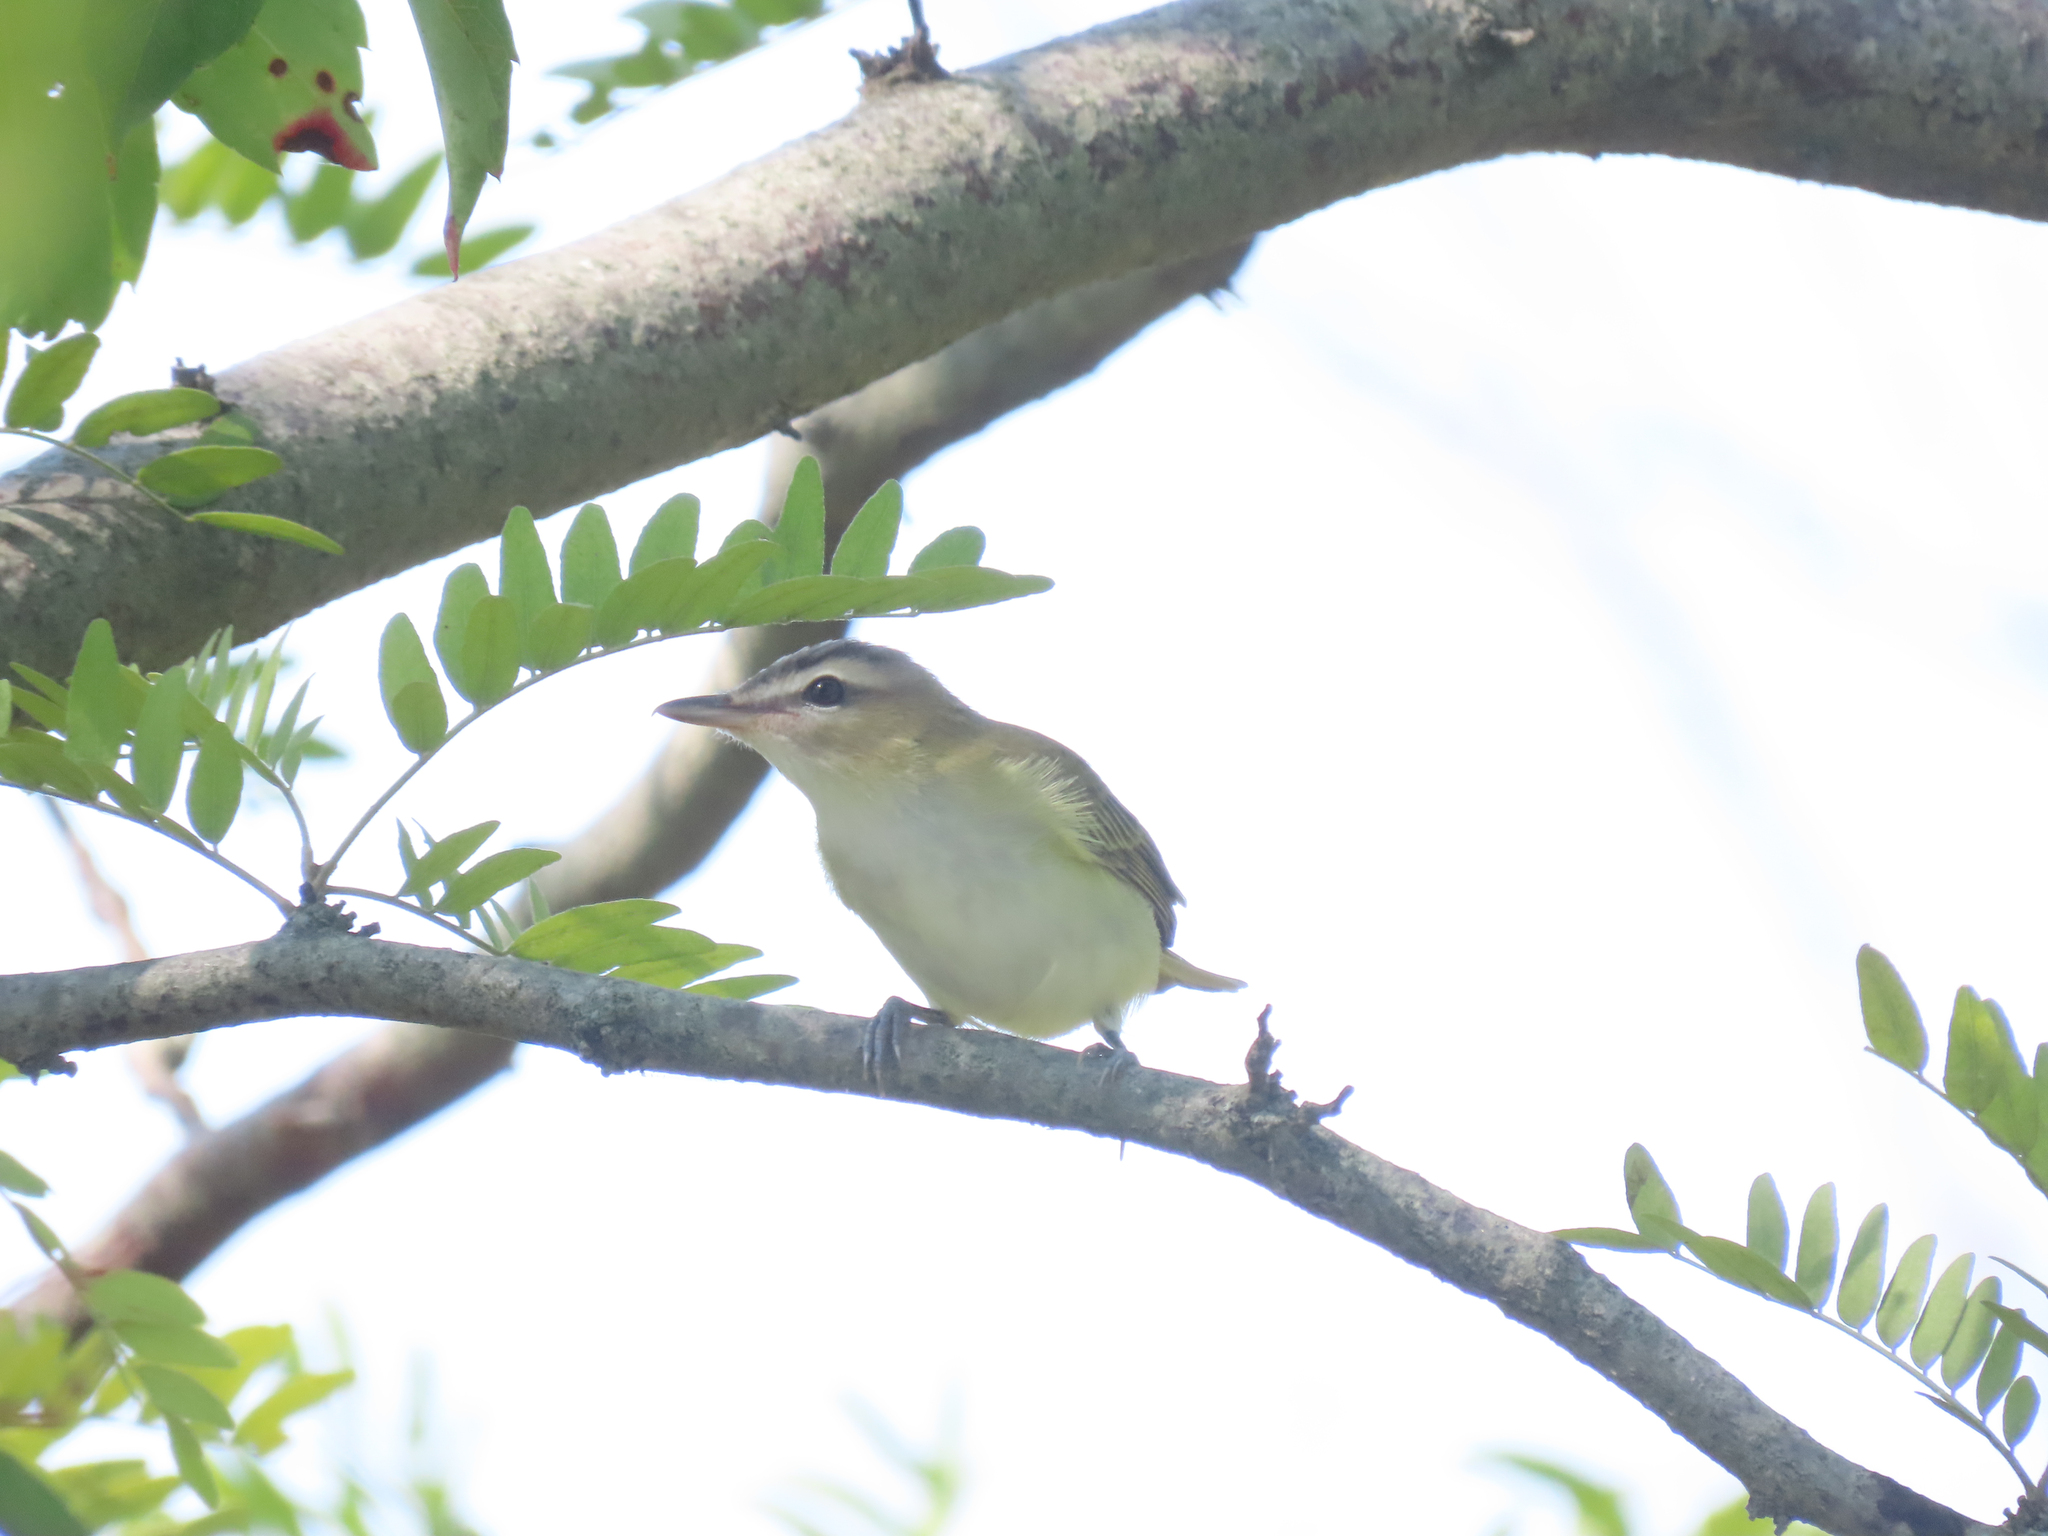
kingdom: Animalia
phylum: Chordata
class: Aves
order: Passeriformes
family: Vireonidae
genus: Vireo
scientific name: Vireo olivaceus
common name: Red-eyed vireo
